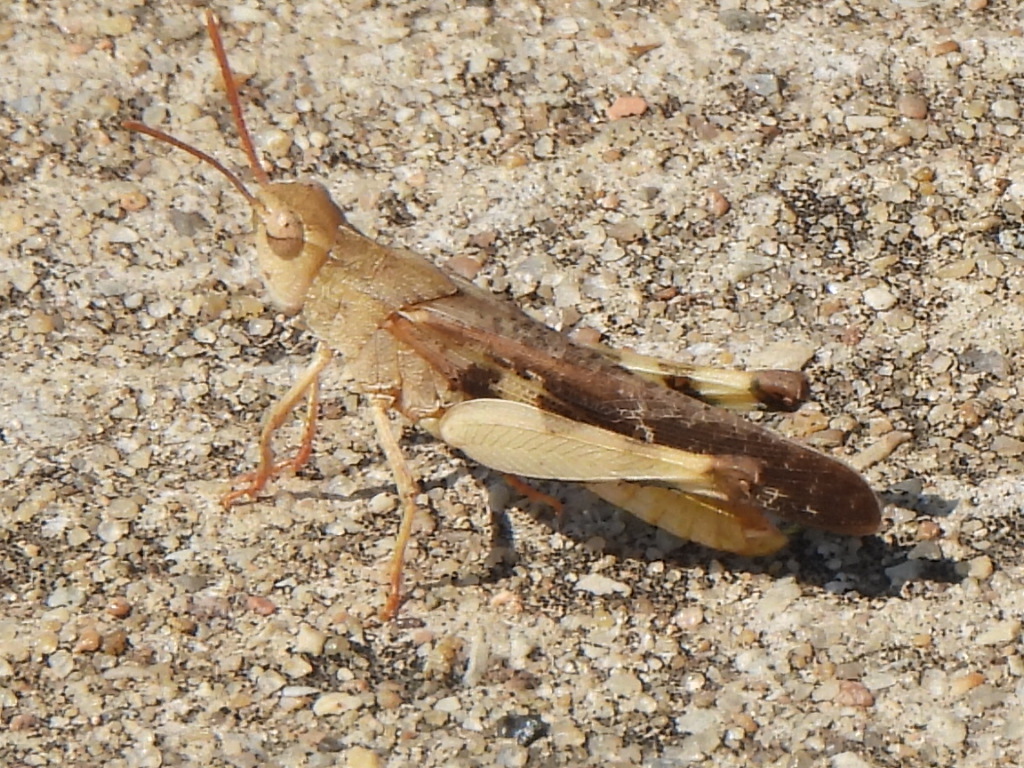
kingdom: Animalia
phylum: Arthropoda
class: Insecta
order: Orthoptera
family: Acrididae
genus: Chortophaga
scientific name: Chortophaga viridifasciata
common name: Green-striped grasshopper
